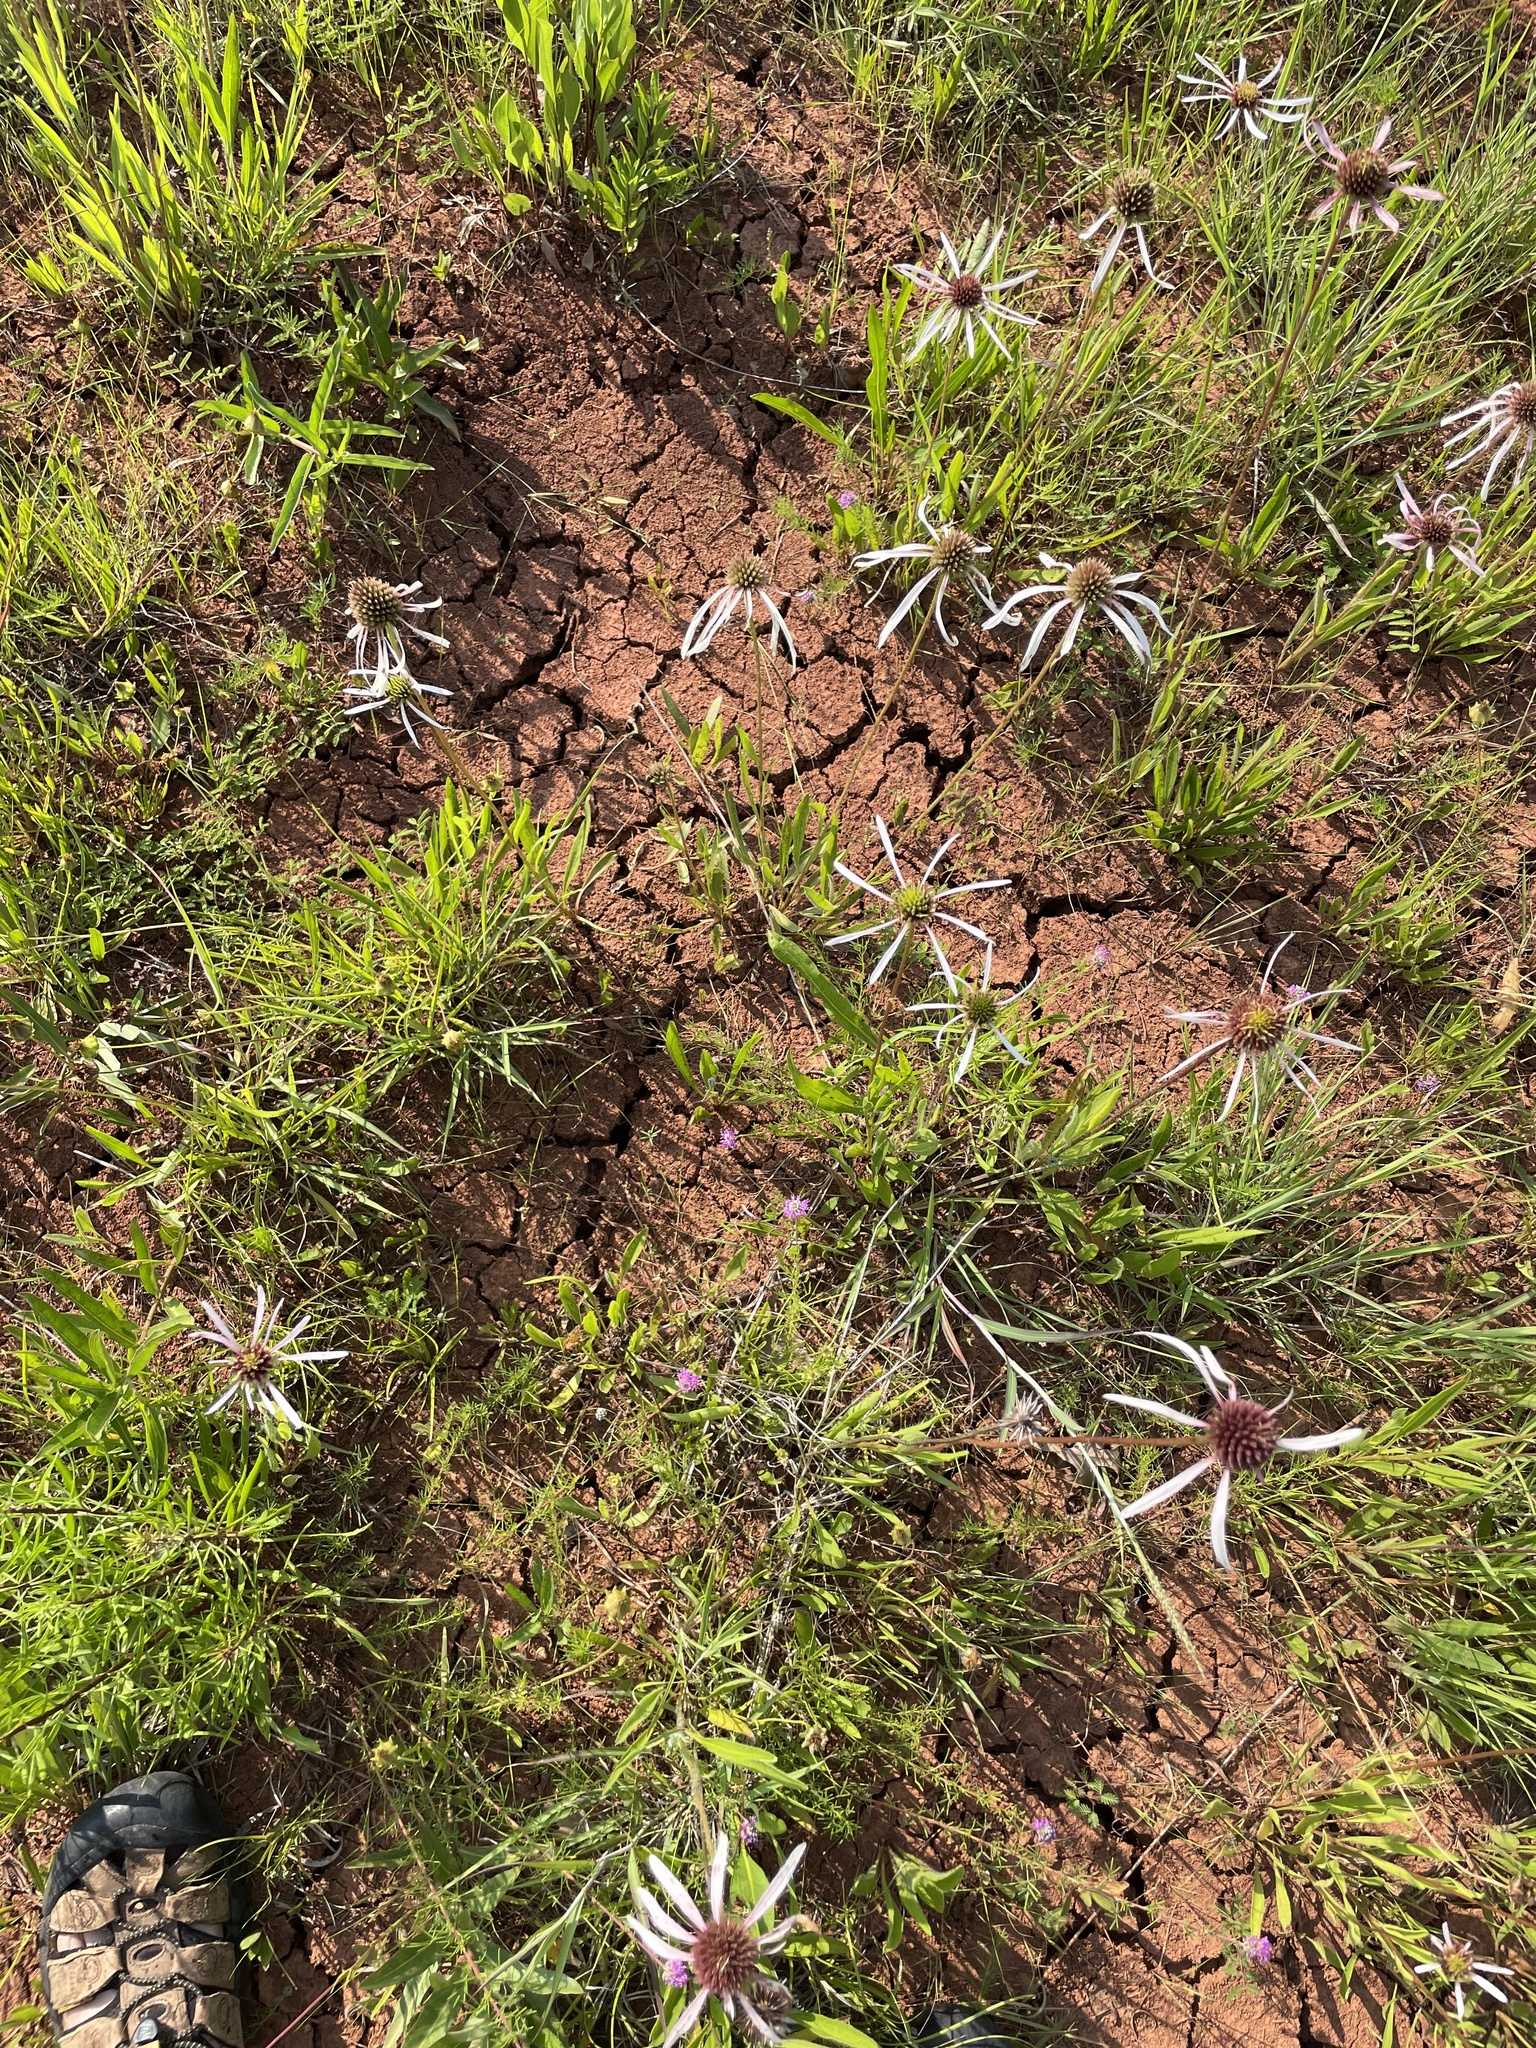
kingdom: Plantae
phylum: Tracheophyta
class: Magnoliopsida
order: Asterales
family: Asteraceae
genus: Echinacea
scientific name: Echinacea pallida
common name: Pale echinacea
